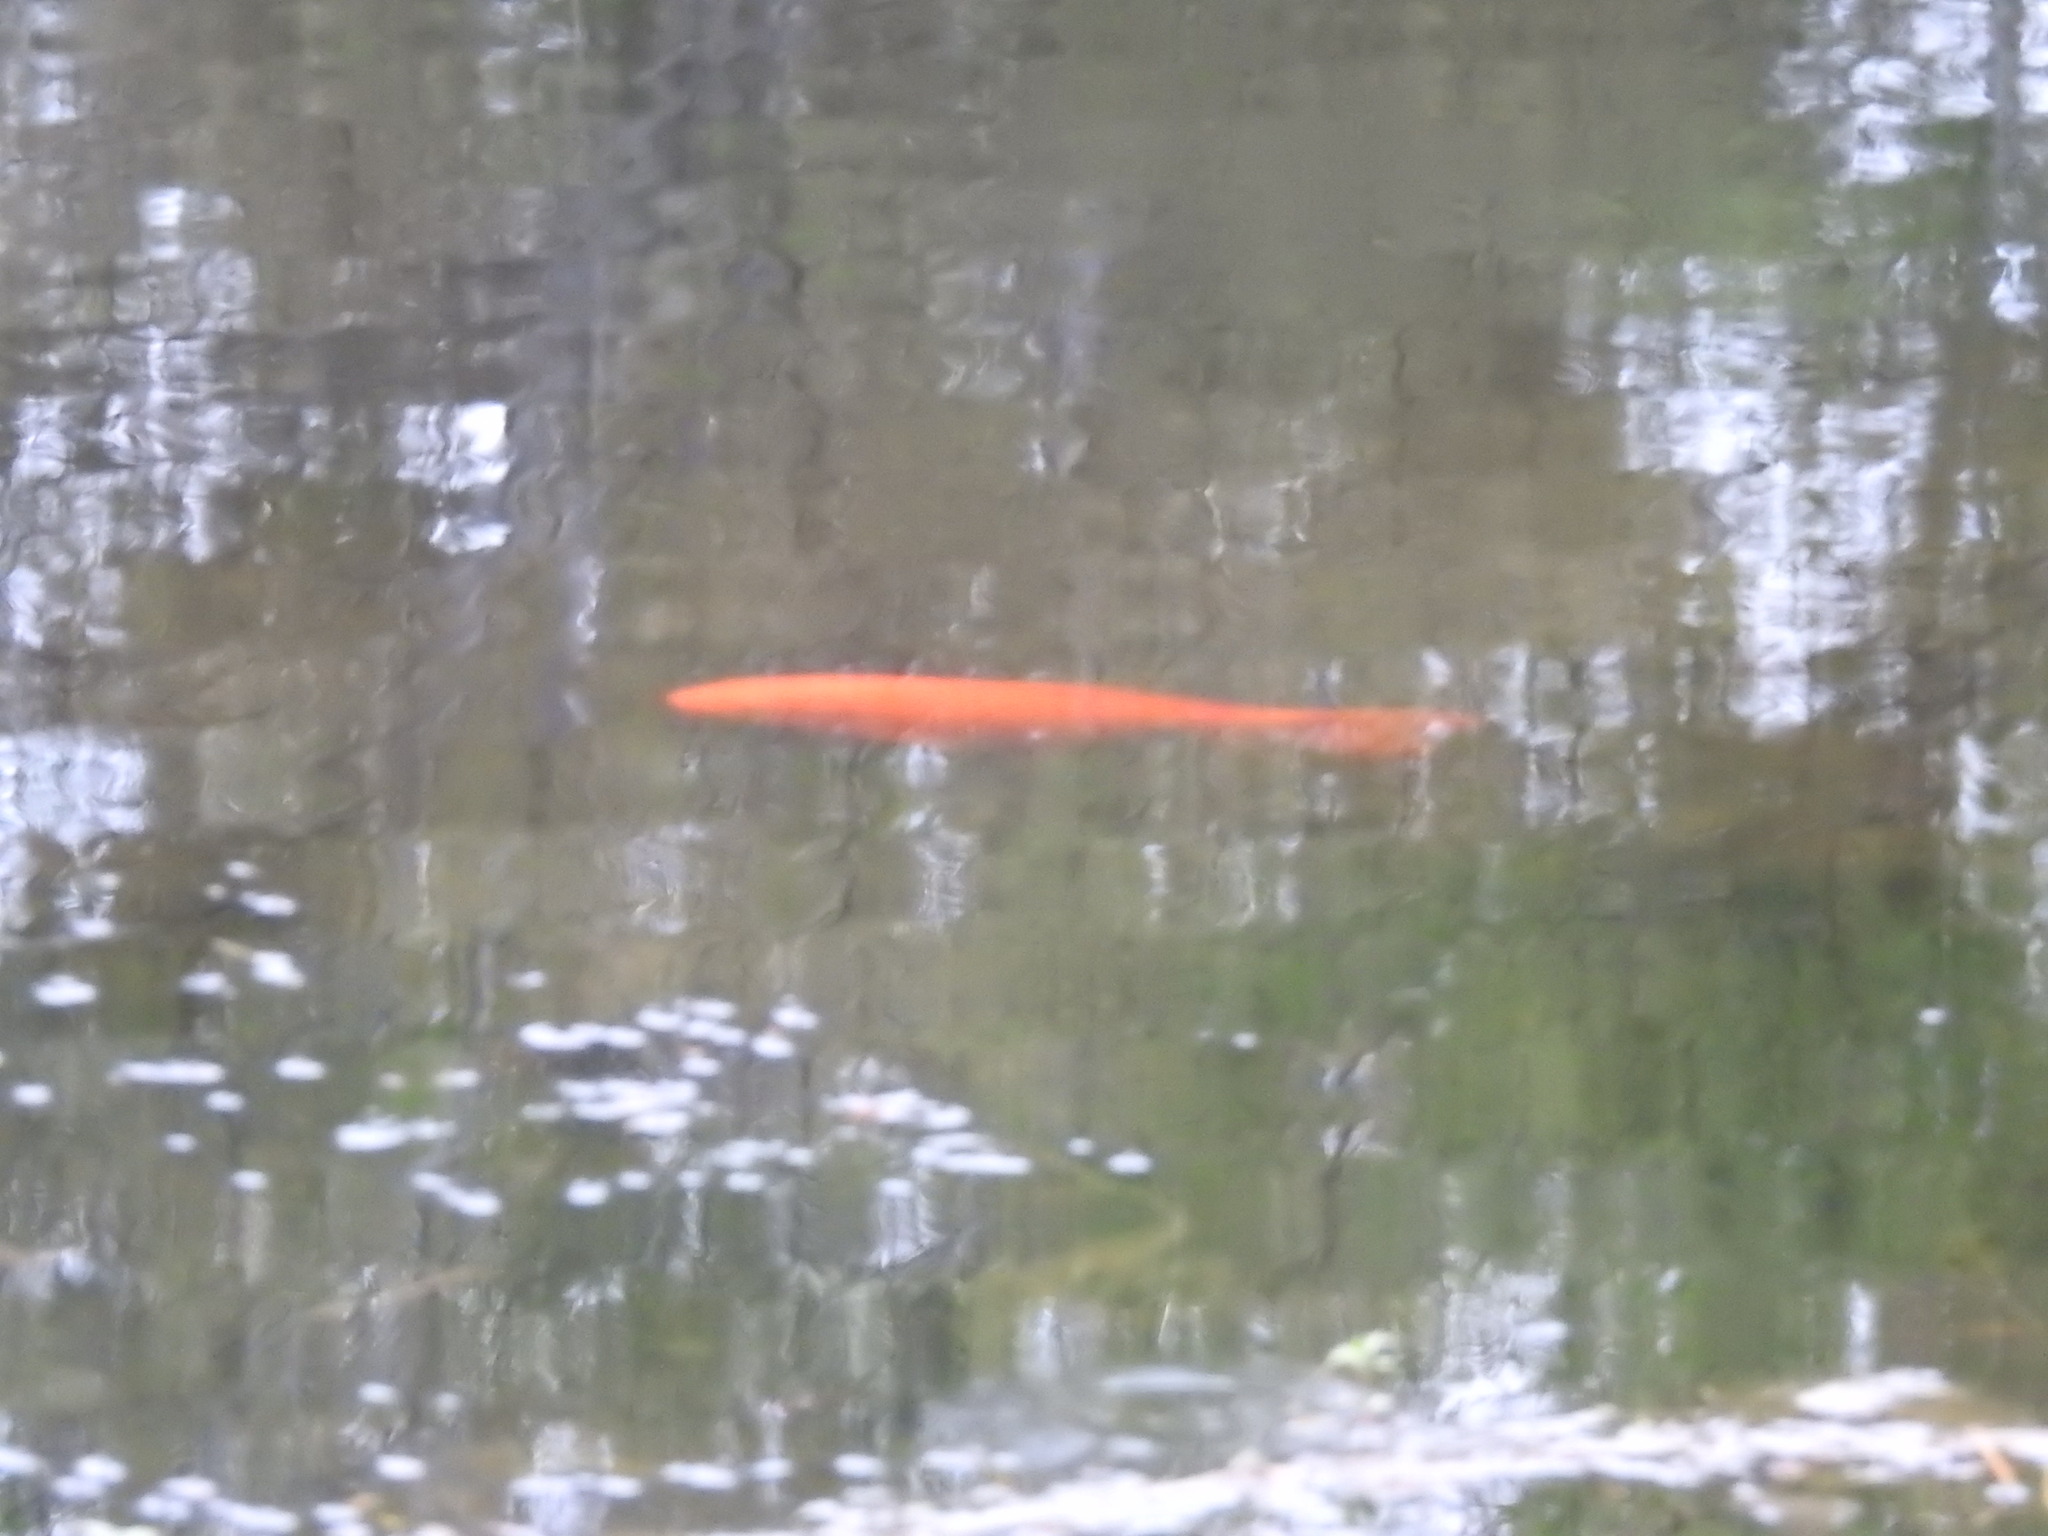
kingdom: Animalia
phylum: Chordata
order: Cypriniformes
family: Cyprinidae
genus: Cyprinus
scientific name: Cyprinus rubrofuscus
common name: Koi
